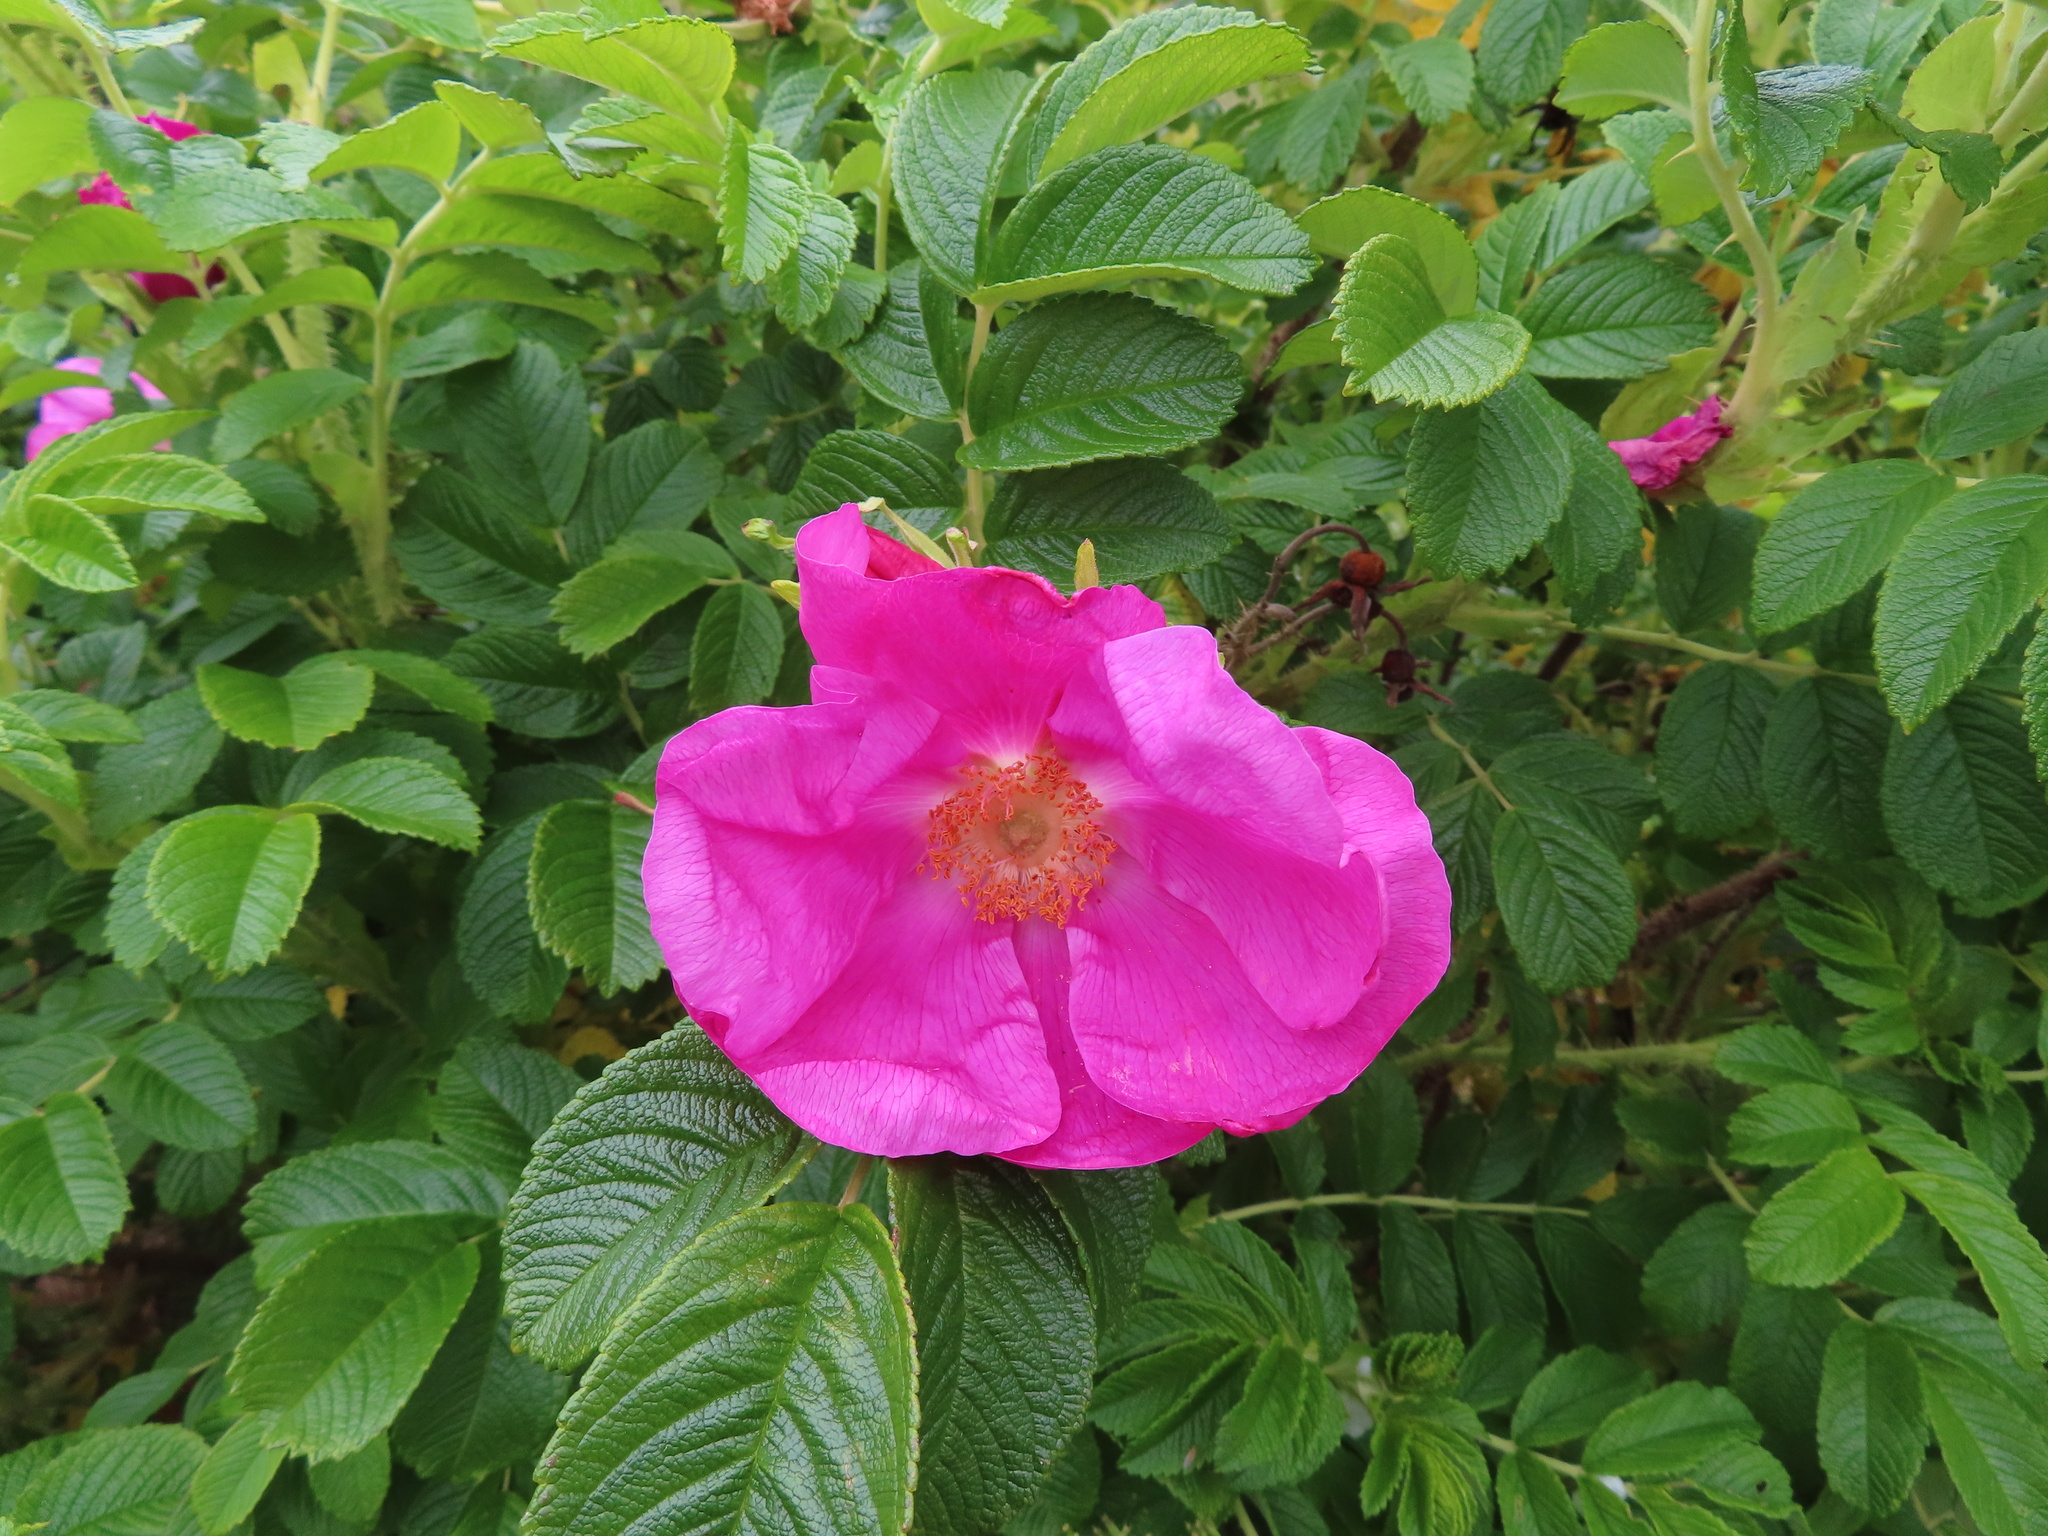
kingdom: Plantae
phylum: Tracheophyta
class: Magnoliopsida
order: Rosales
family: Rosaceae
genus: Rosa
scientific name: Rosa rugosa
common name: Japanese rose
